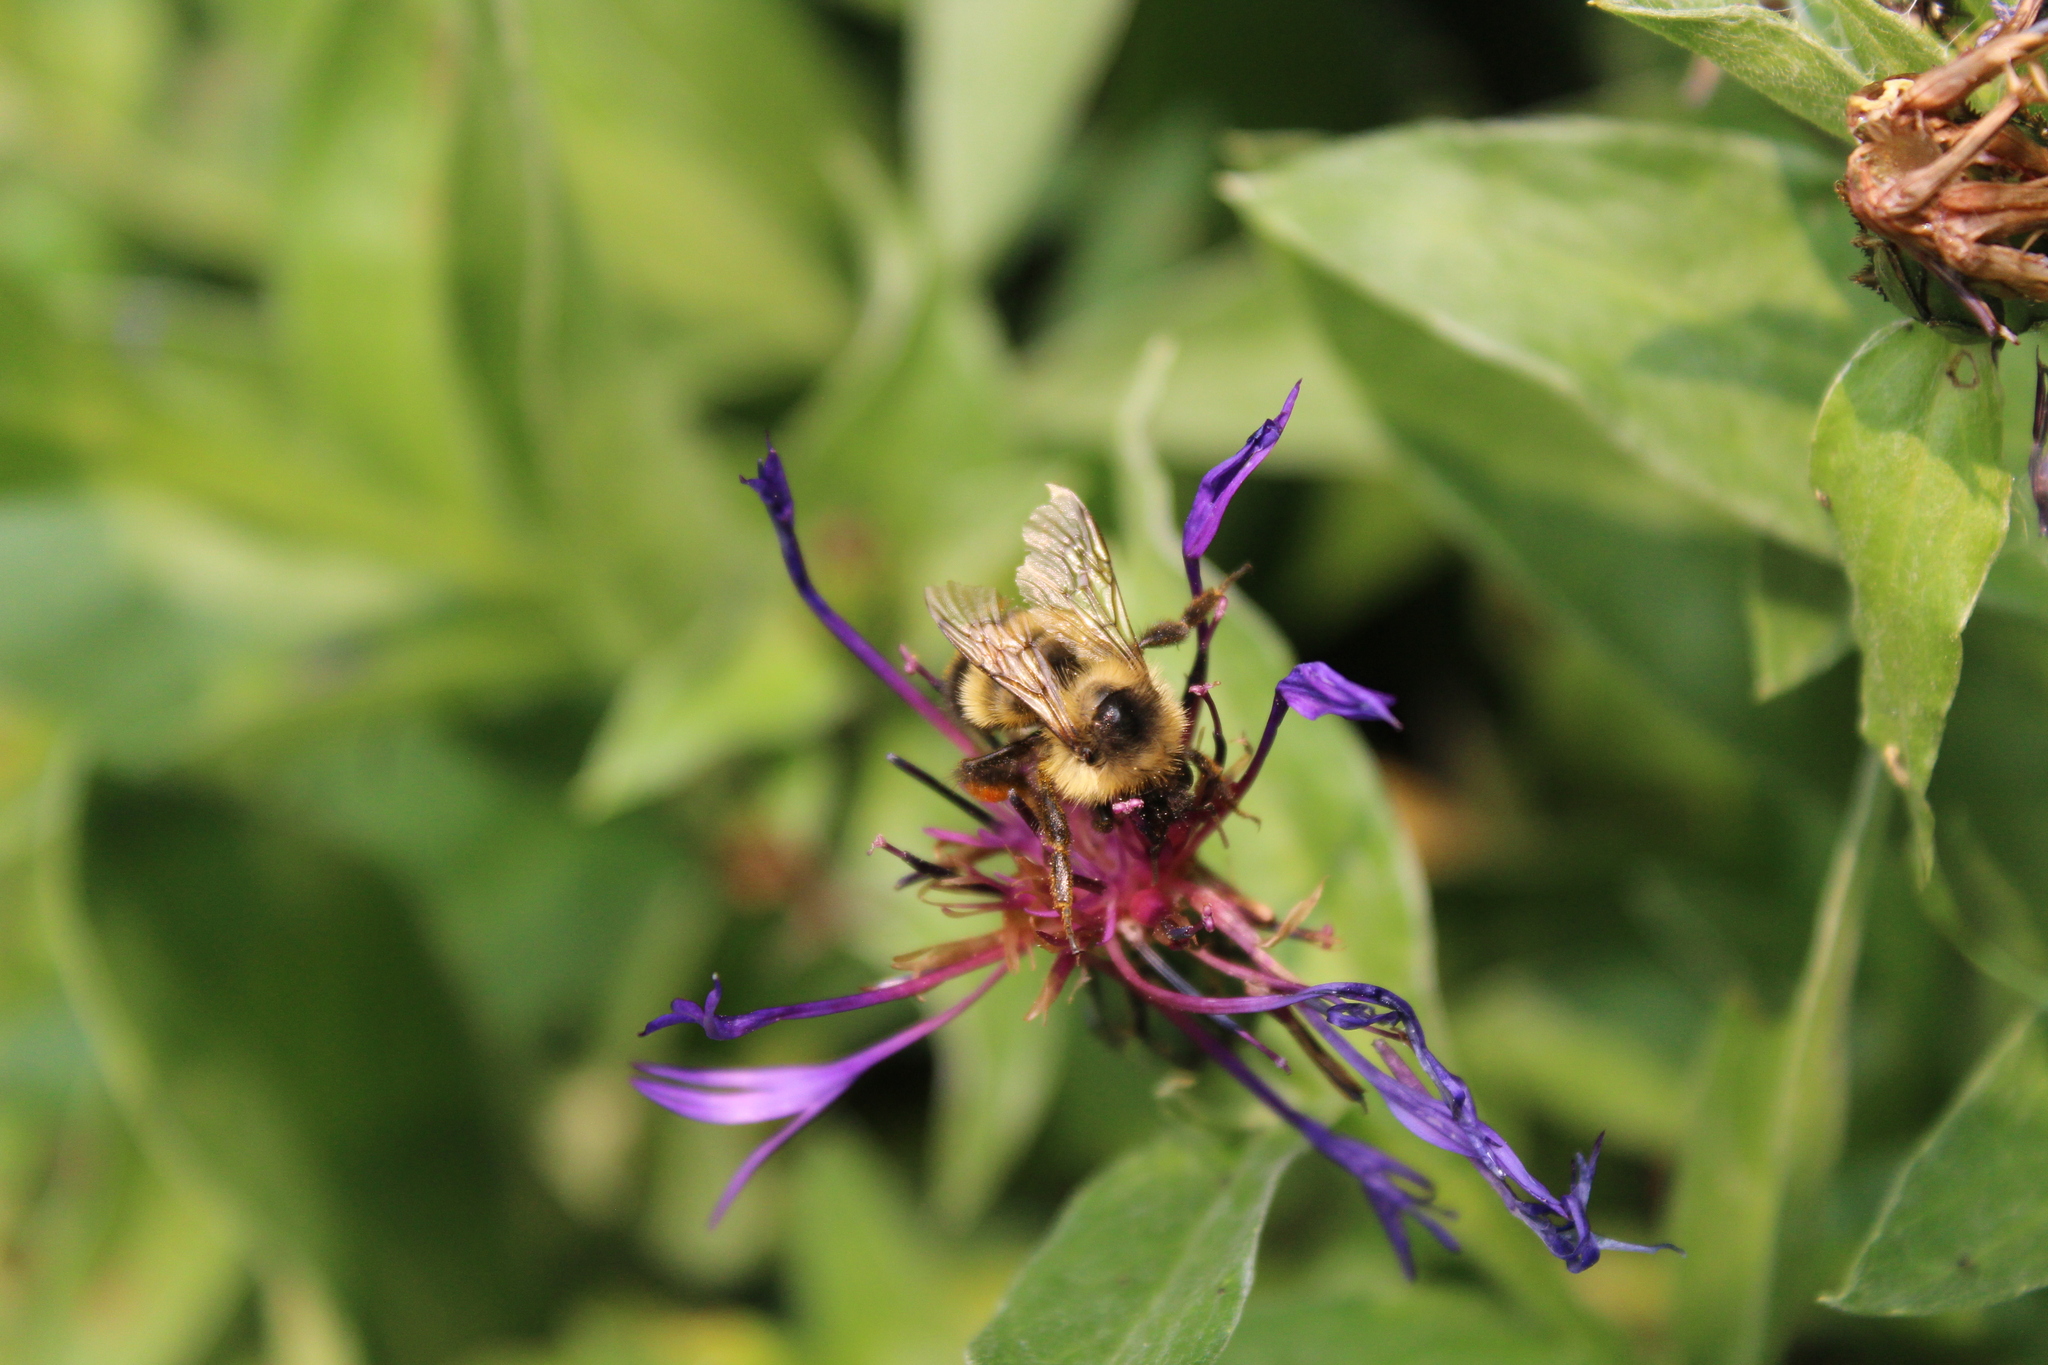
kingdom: Animalia
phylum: Arthropoda
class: Insecta
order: Hymenoptera
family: Apidae
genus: Bombus
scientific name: Bombus vagans
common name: Half-black bumble bee
